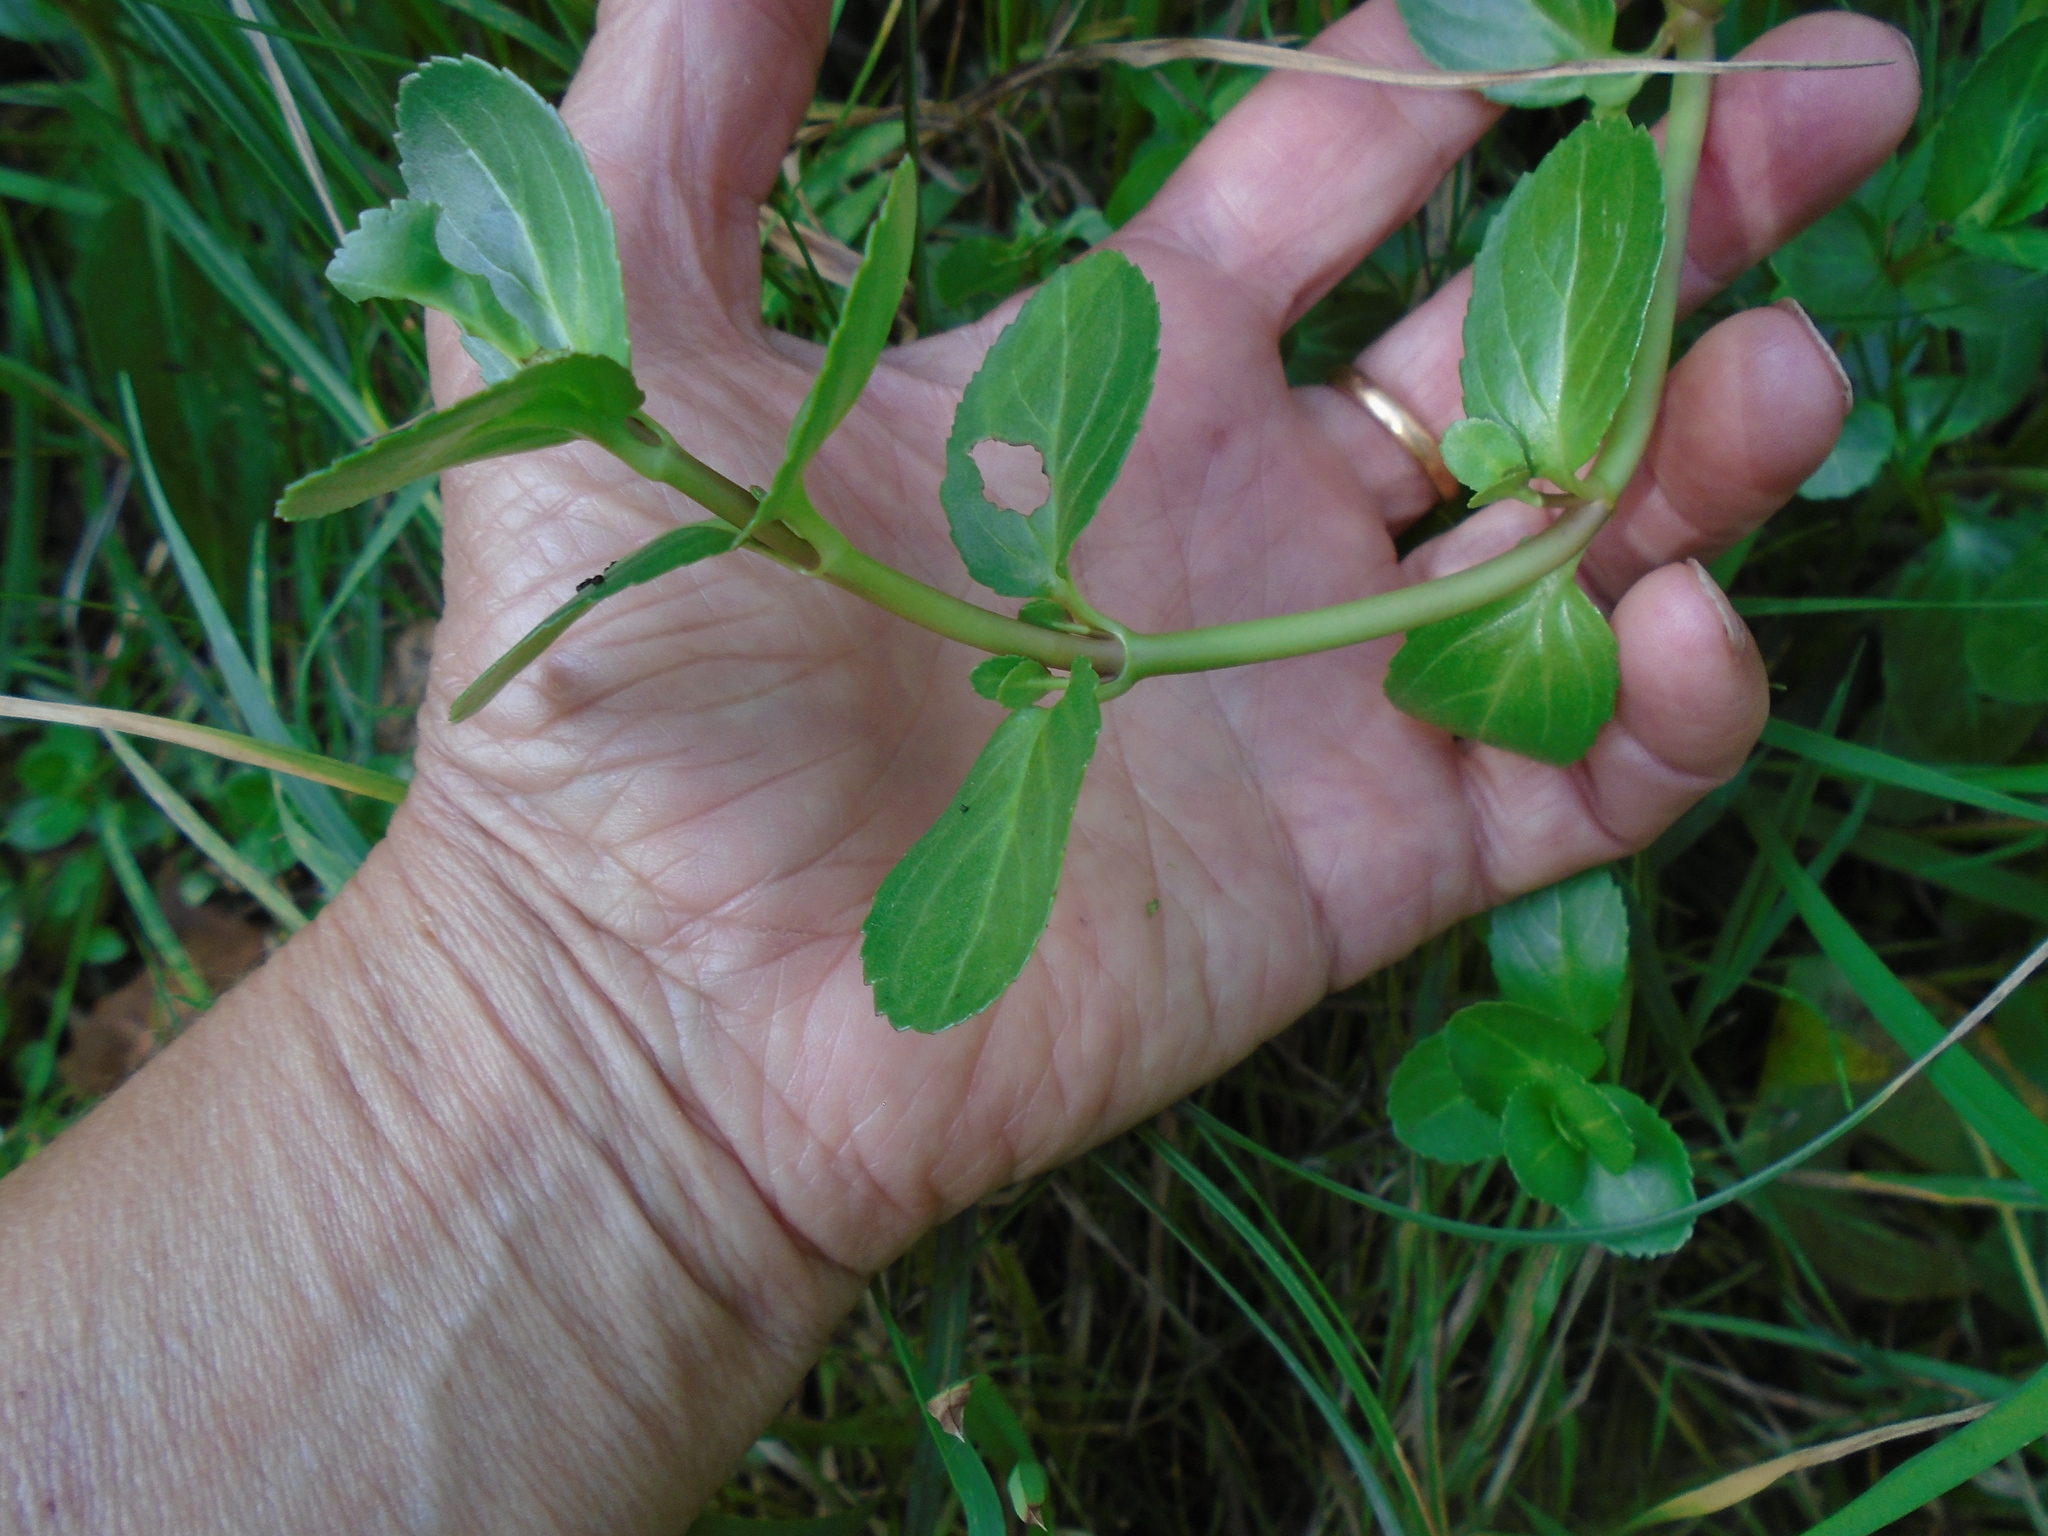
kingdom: Plantae
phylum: Tracheophyta
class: Magnoliopsida
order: Lamiales
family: Plantaginaceae
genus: Veronica
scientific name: Veronica beccabunga
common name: Brooklime
